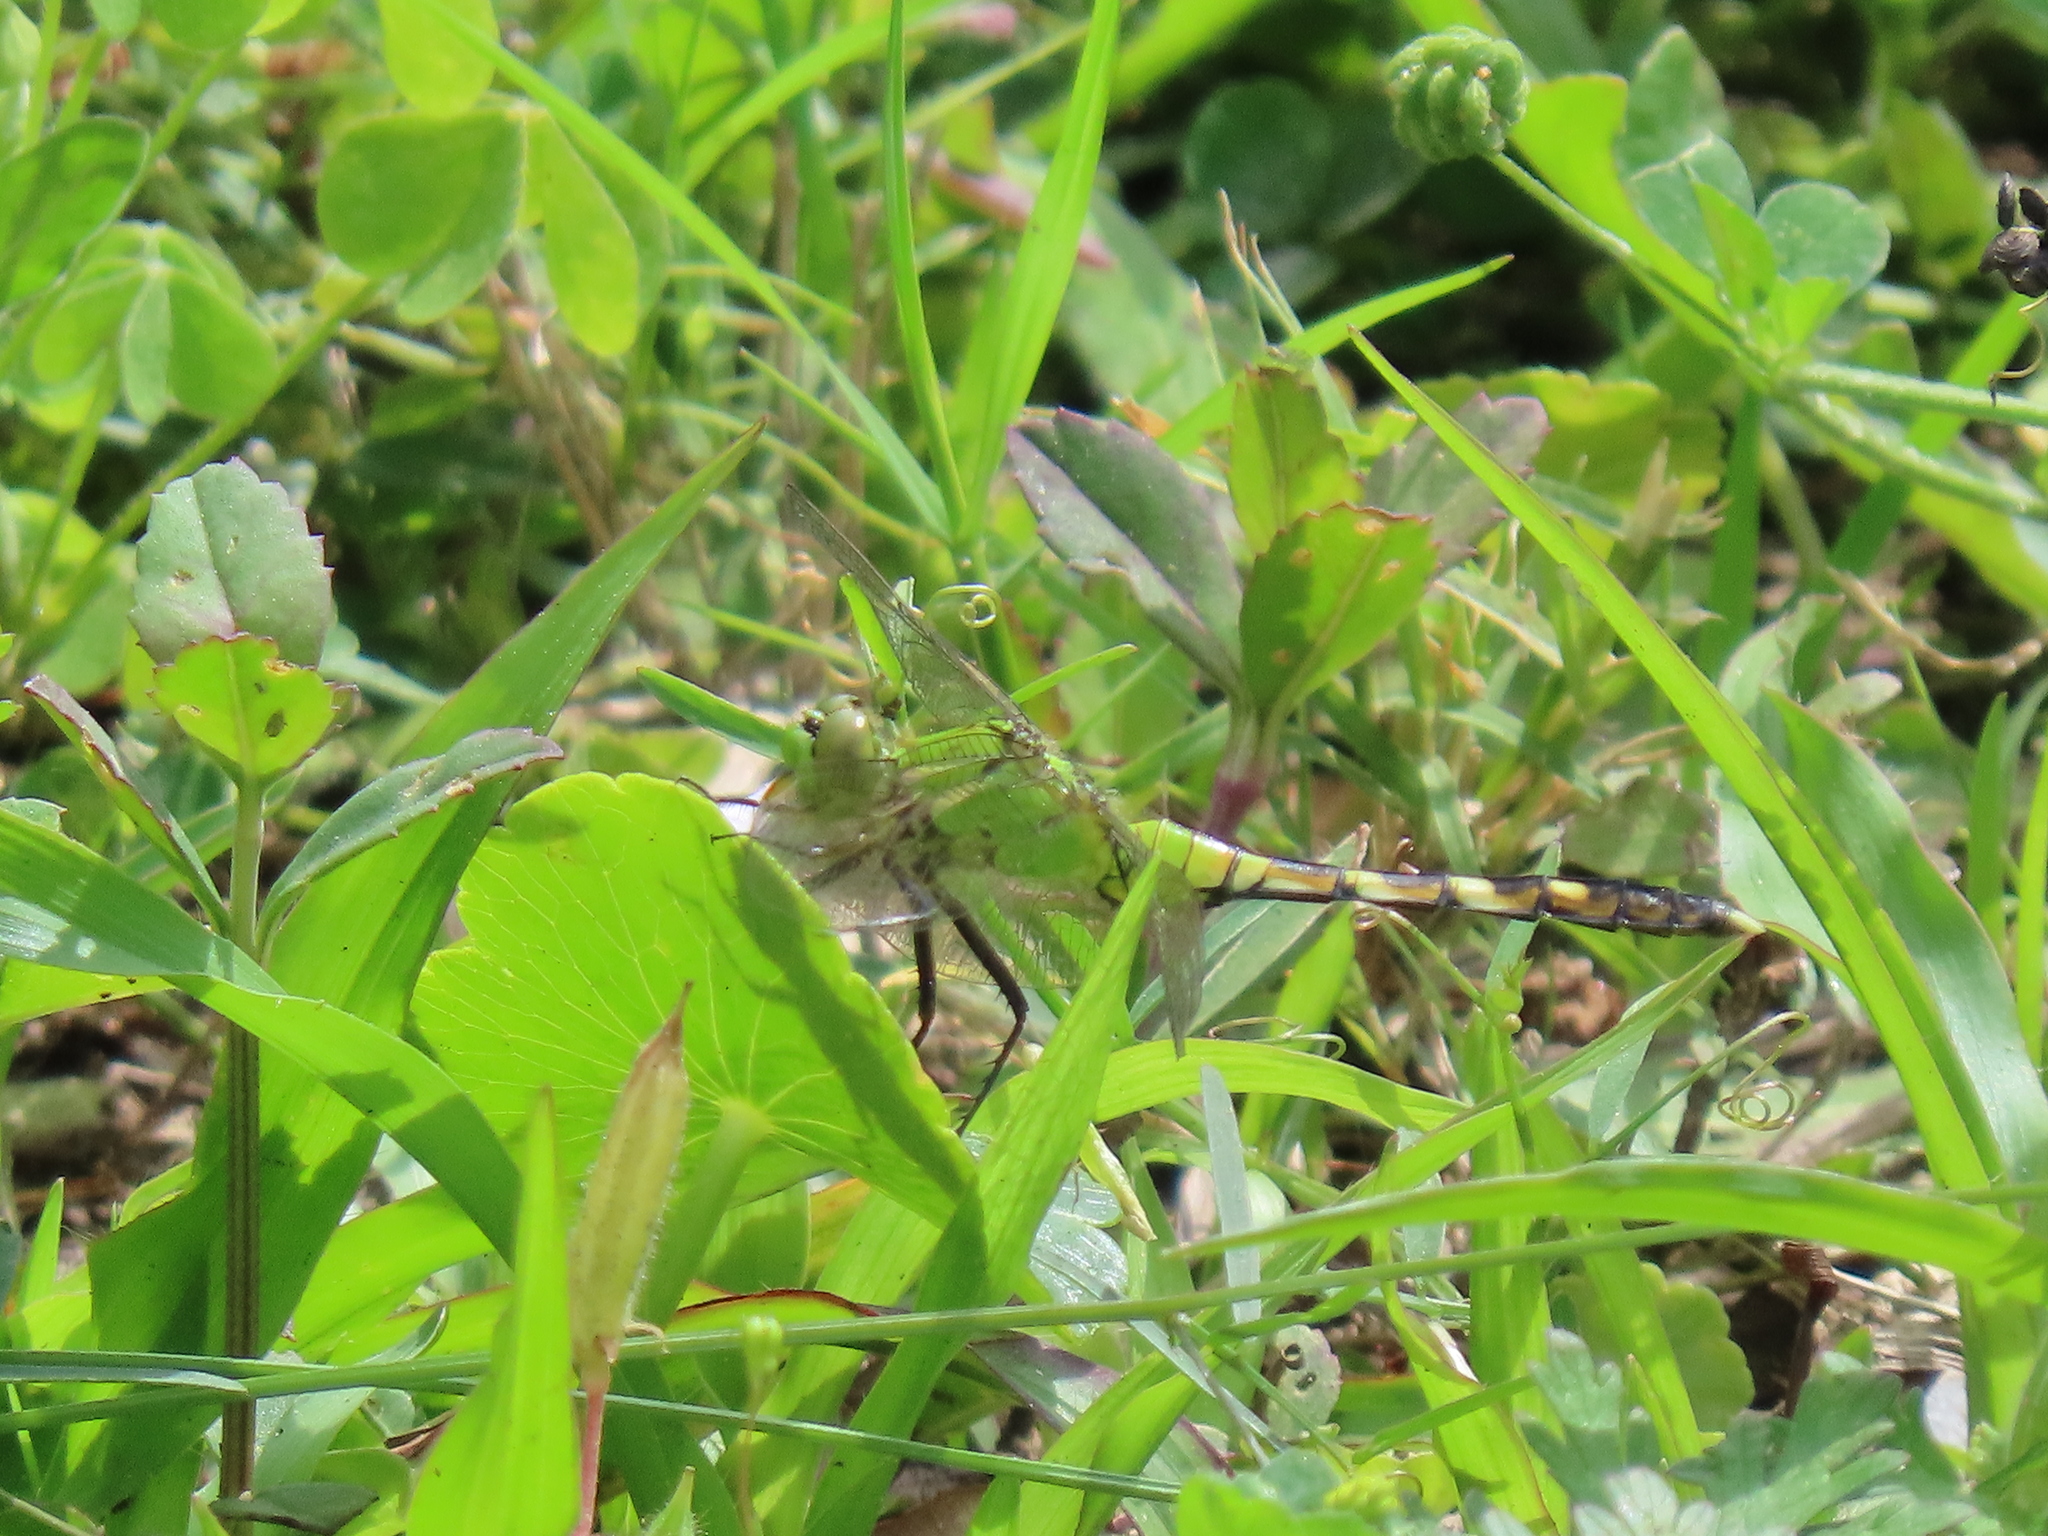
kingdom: Animalia
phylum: Arthropoda
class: Insecta
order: Odonata
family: Libellulidae
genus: Erythemis
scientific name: Erythemis simplicicollis
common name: Eastern pondhawk
